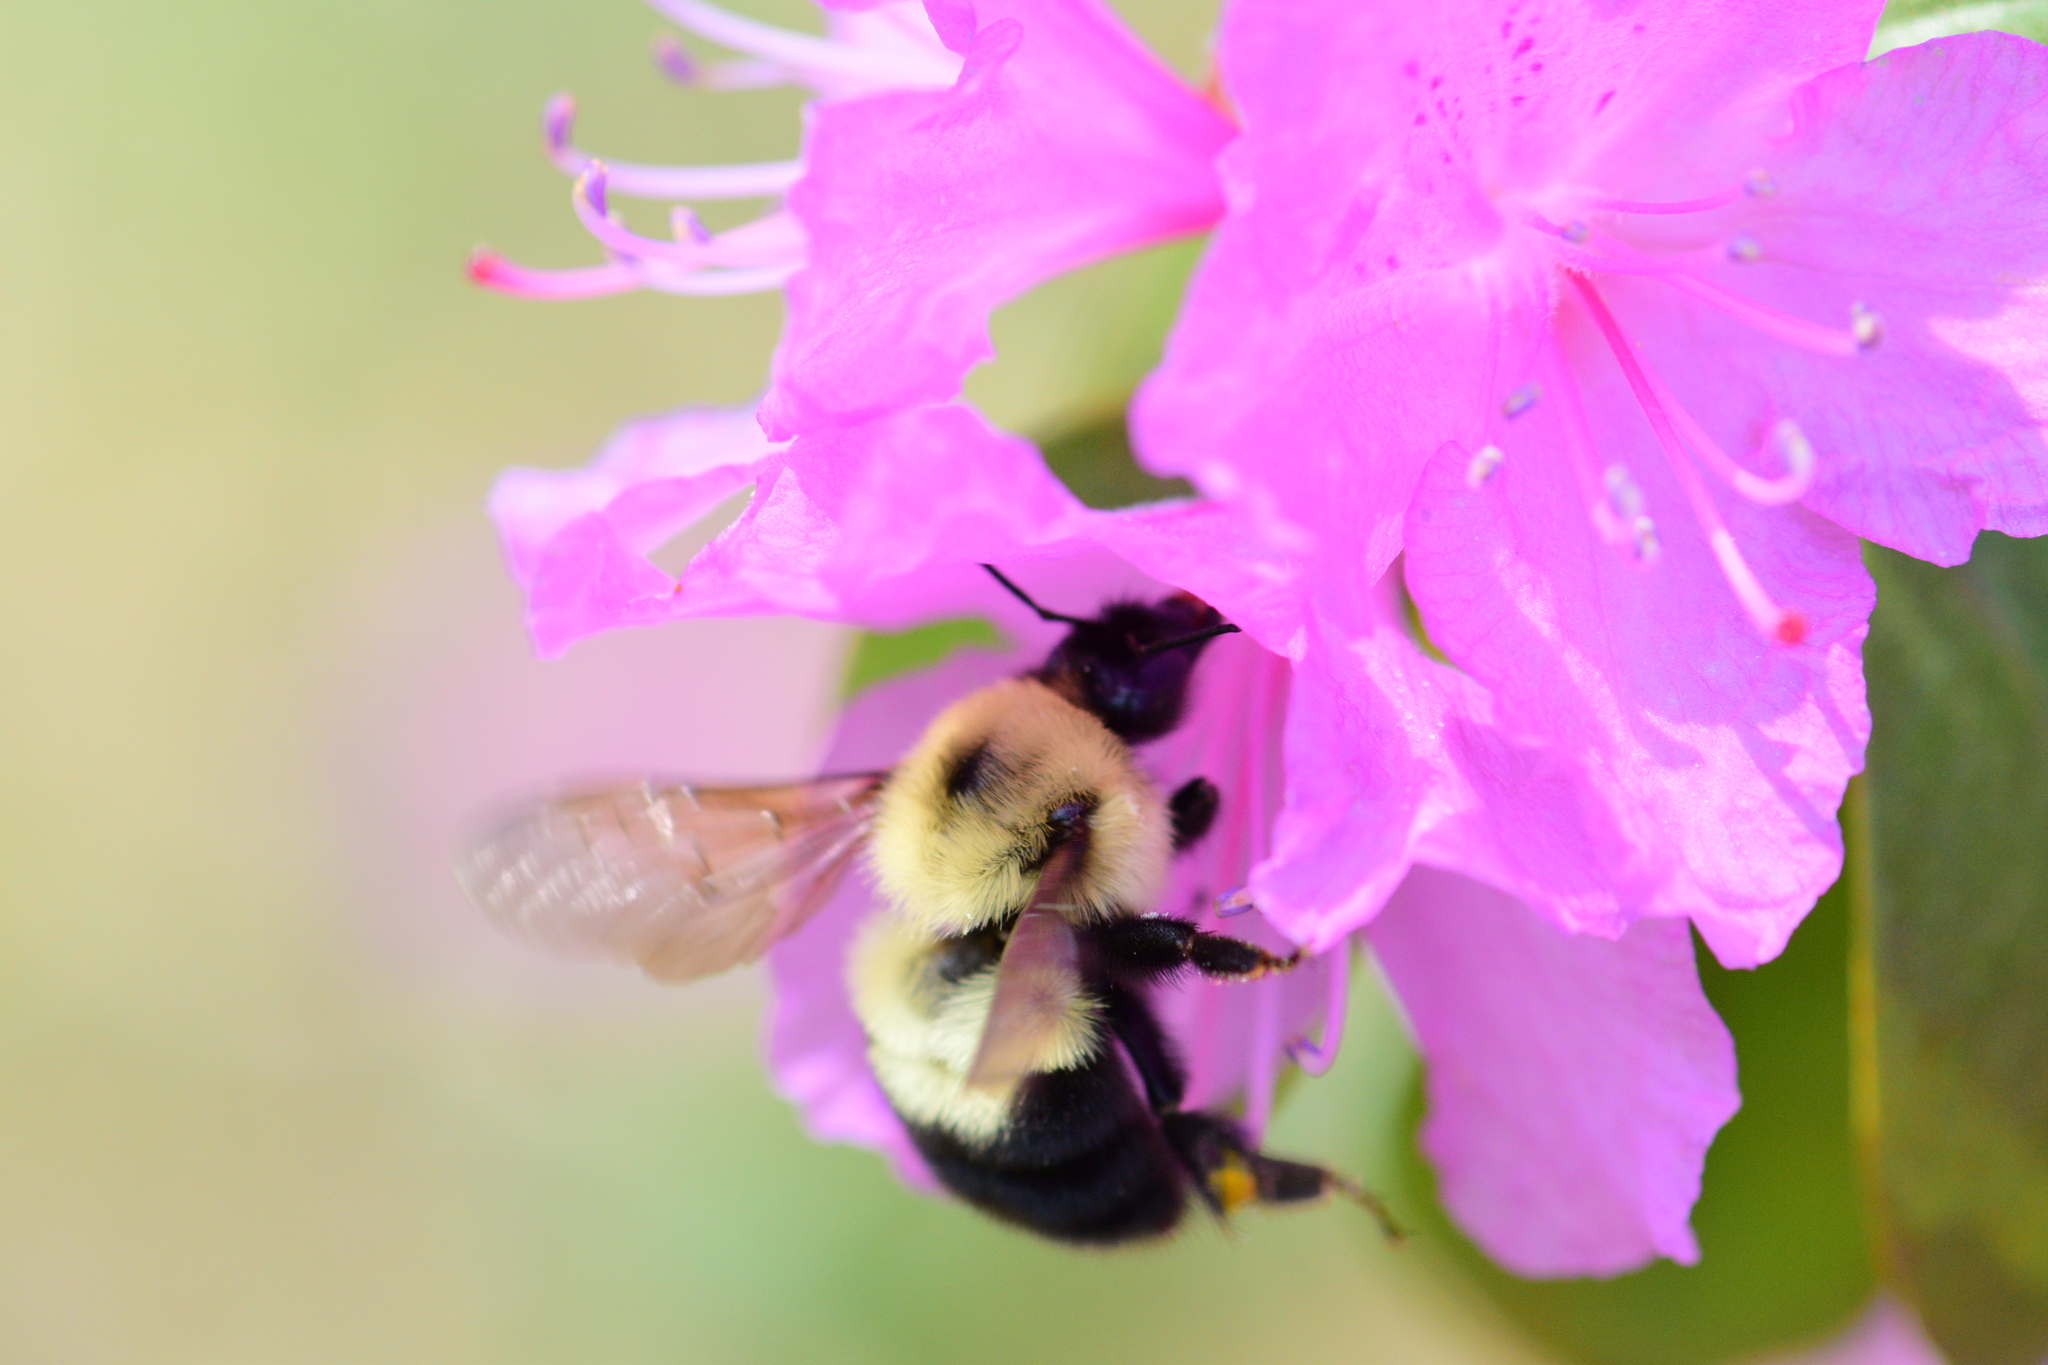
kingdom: Animalia
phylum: Arthropoda
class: Insecta
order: Hymenoptera
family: Apidae
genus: Bombus
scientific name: Bombus bimaculatus
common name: Two-spotted bumble bee
